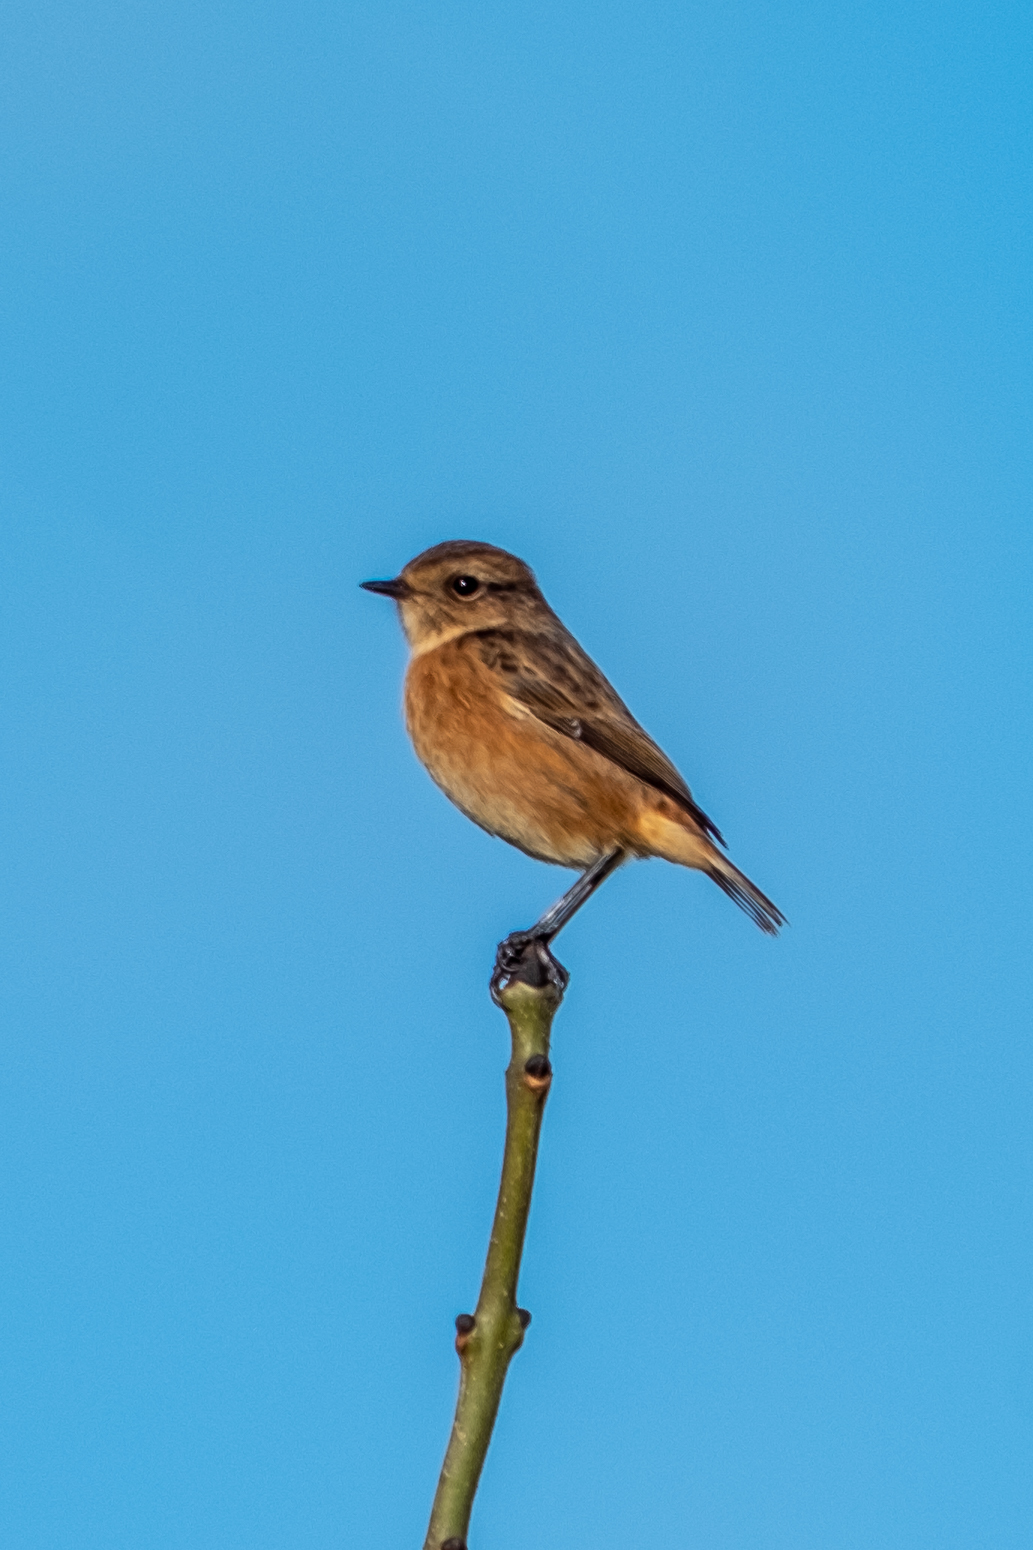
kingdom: Animalia
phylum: Chordata
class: Aves
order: Passeriformes
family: Muscicapidae
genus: Saxicola
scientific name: Saxicola rubicola
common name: European stonechat
